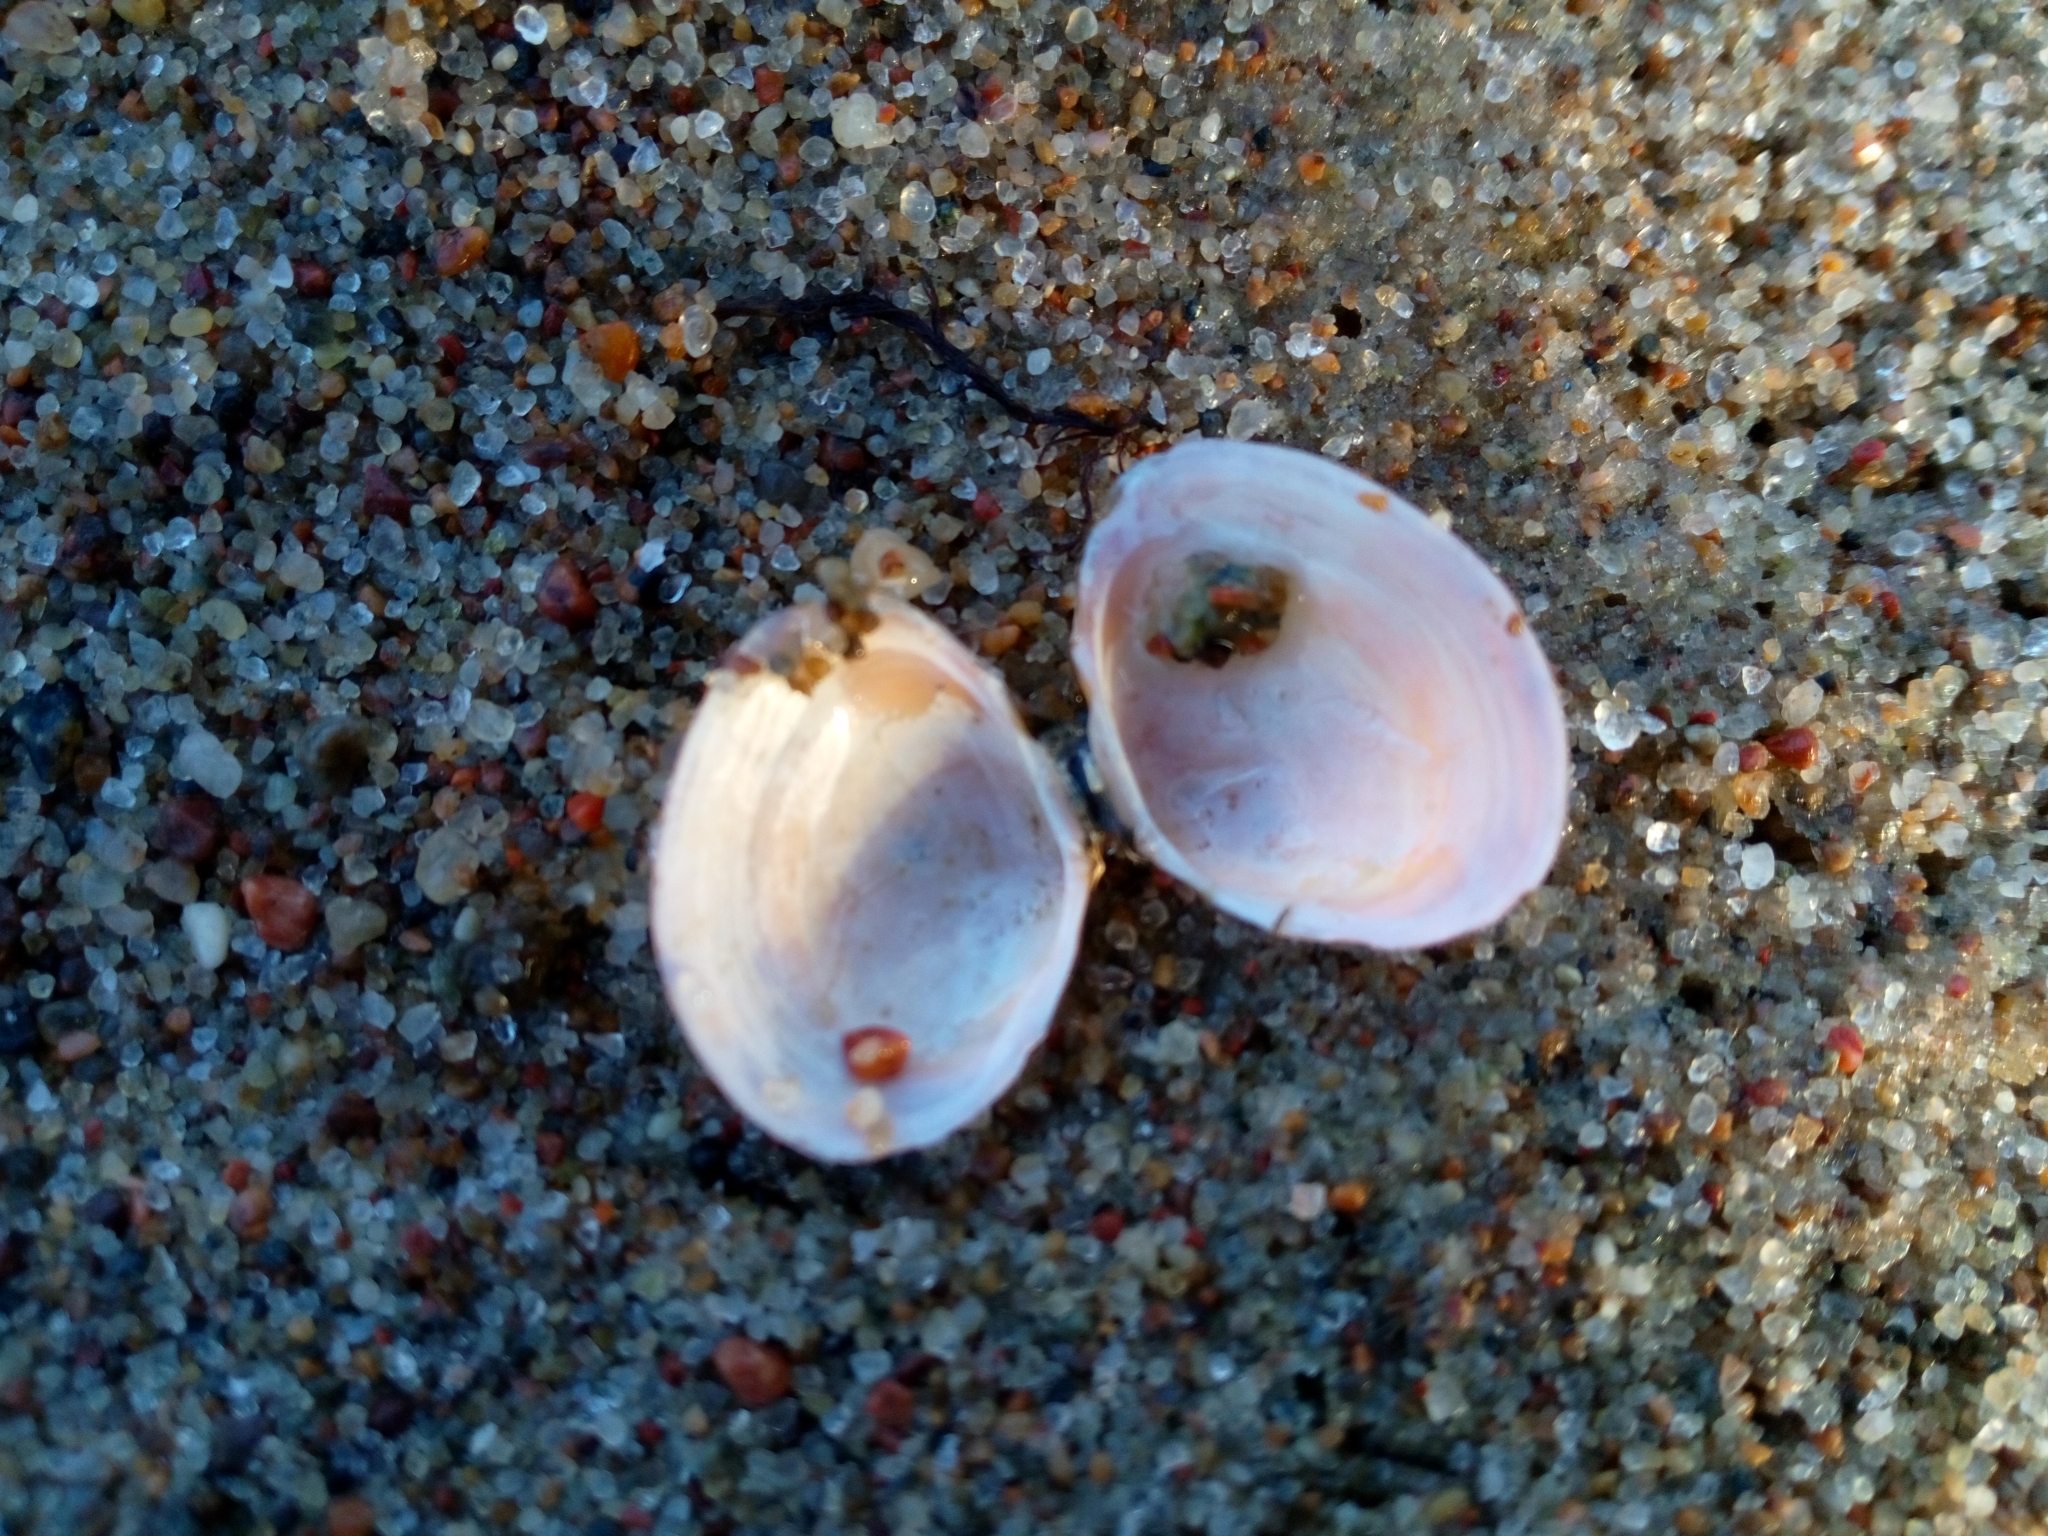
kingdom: Animalia
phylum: Mollusca
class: Bivalvia
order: Cardiida
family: Tellinidae
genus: Macoma
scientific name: Macoma balthica
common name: Baltic tellin
